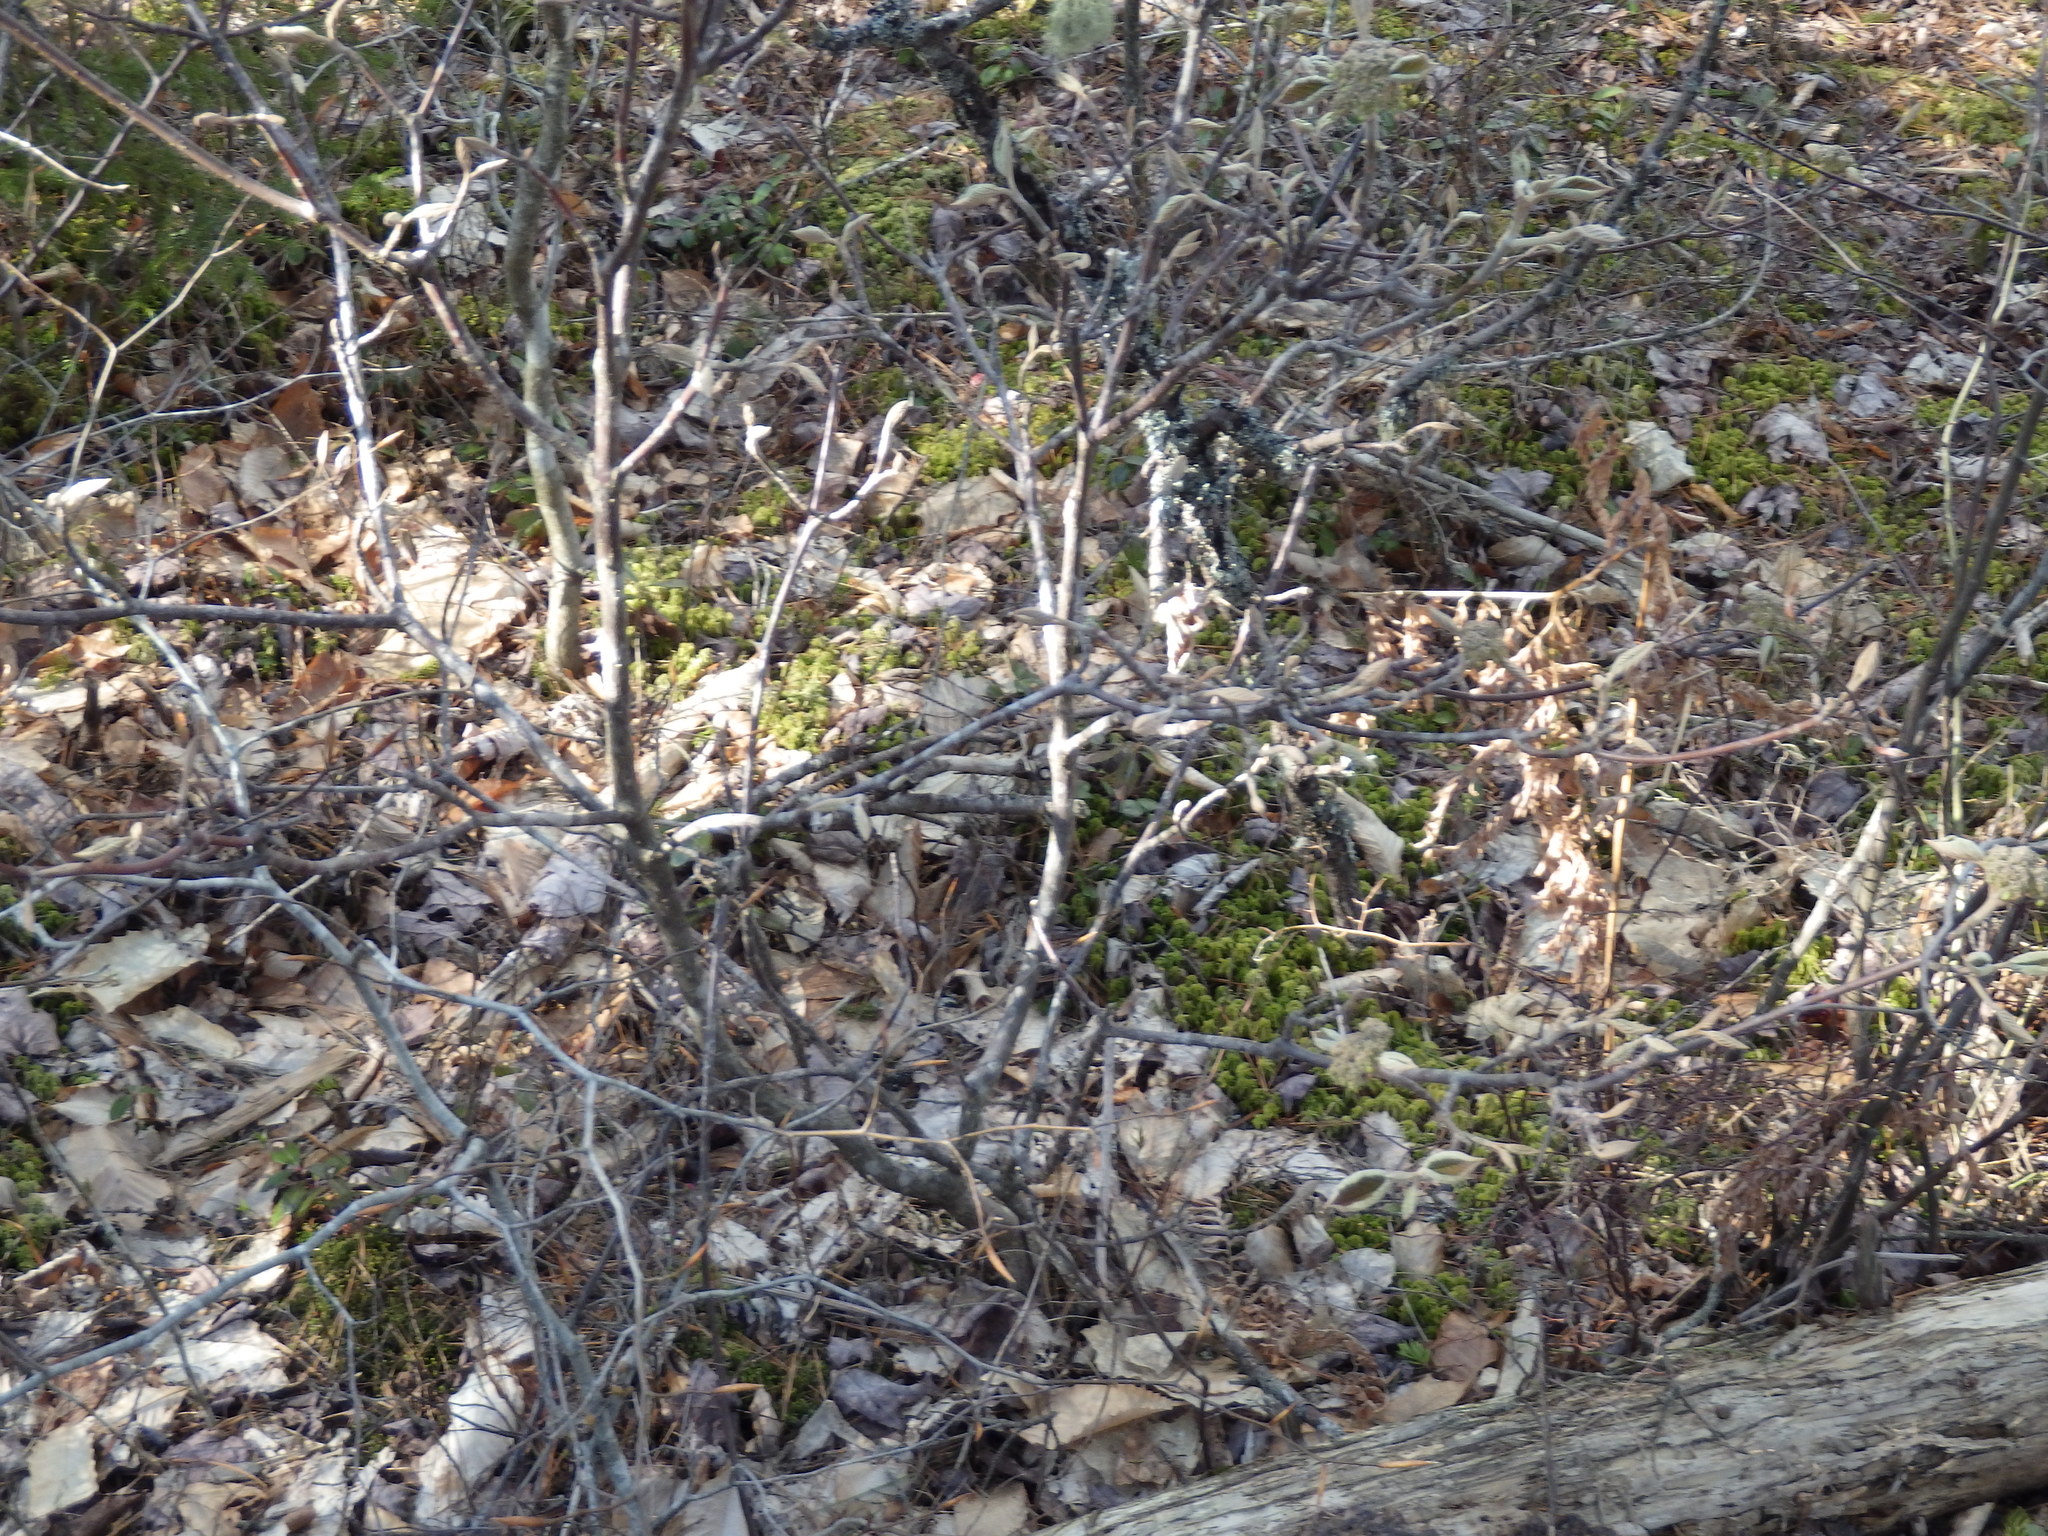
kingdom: Plantae
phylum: Tracheophyta
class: Magnoliopsida
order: Dipsacales
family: Viburnaceae
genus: Viburnum
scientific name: Viburnum lantanoides
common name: Hobblebush
